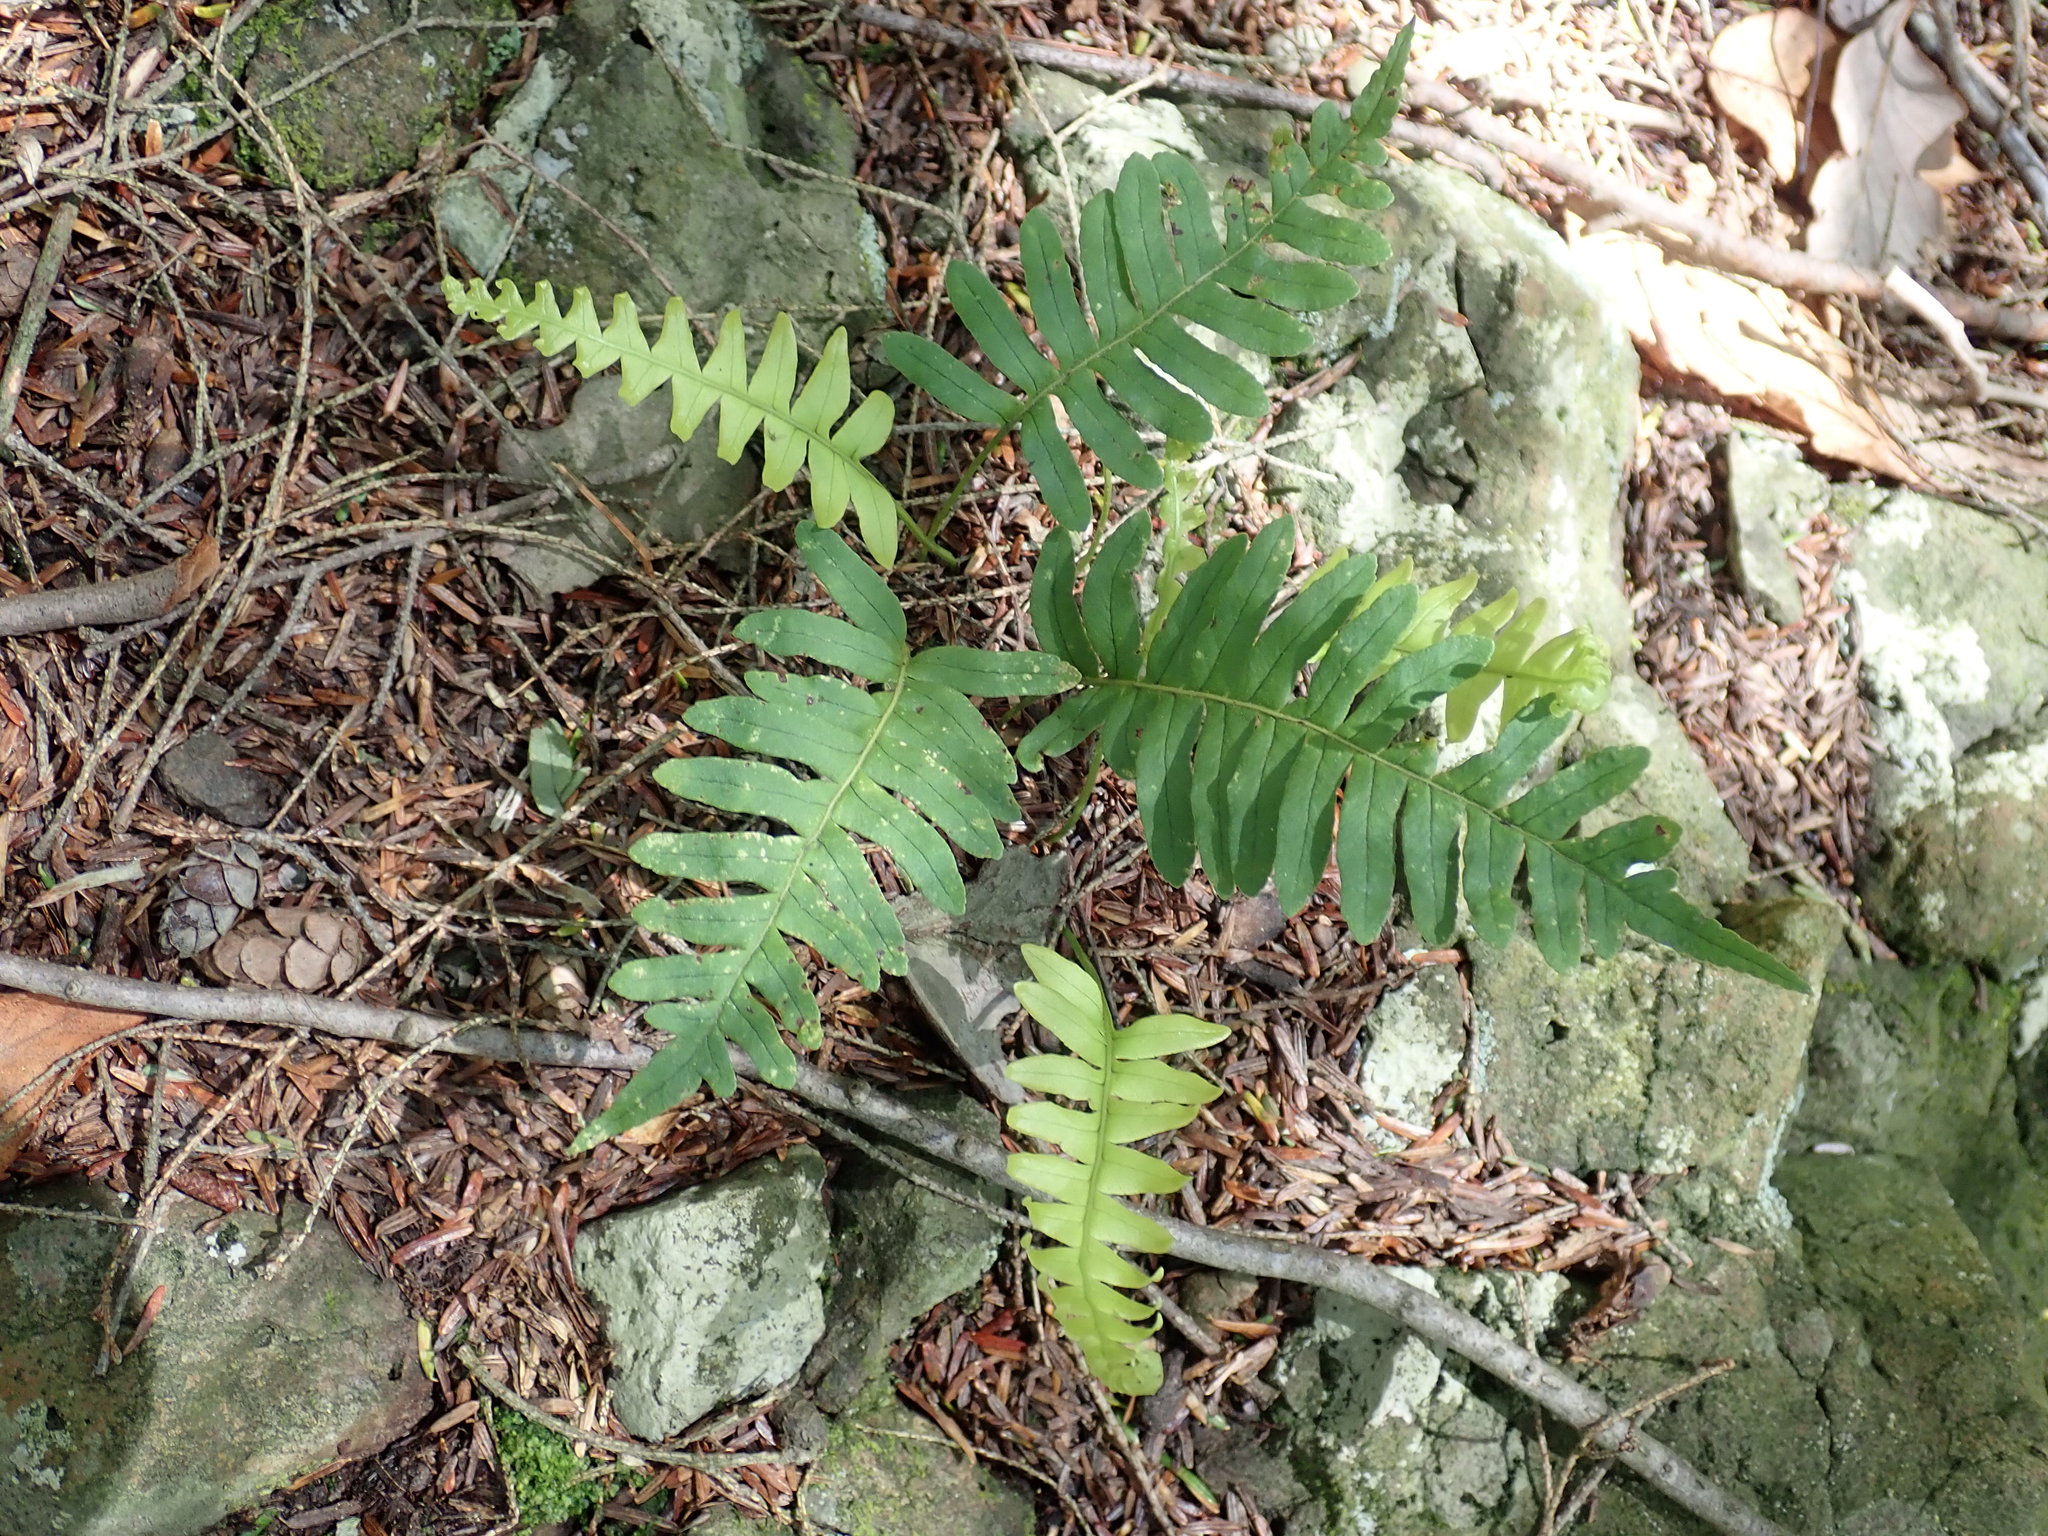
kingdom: Plantae
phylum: Tracheophyta
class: Polypodiopsida
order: Polypodiales
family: Polypodiaceae
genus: Polypodium
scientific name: Polypodium
